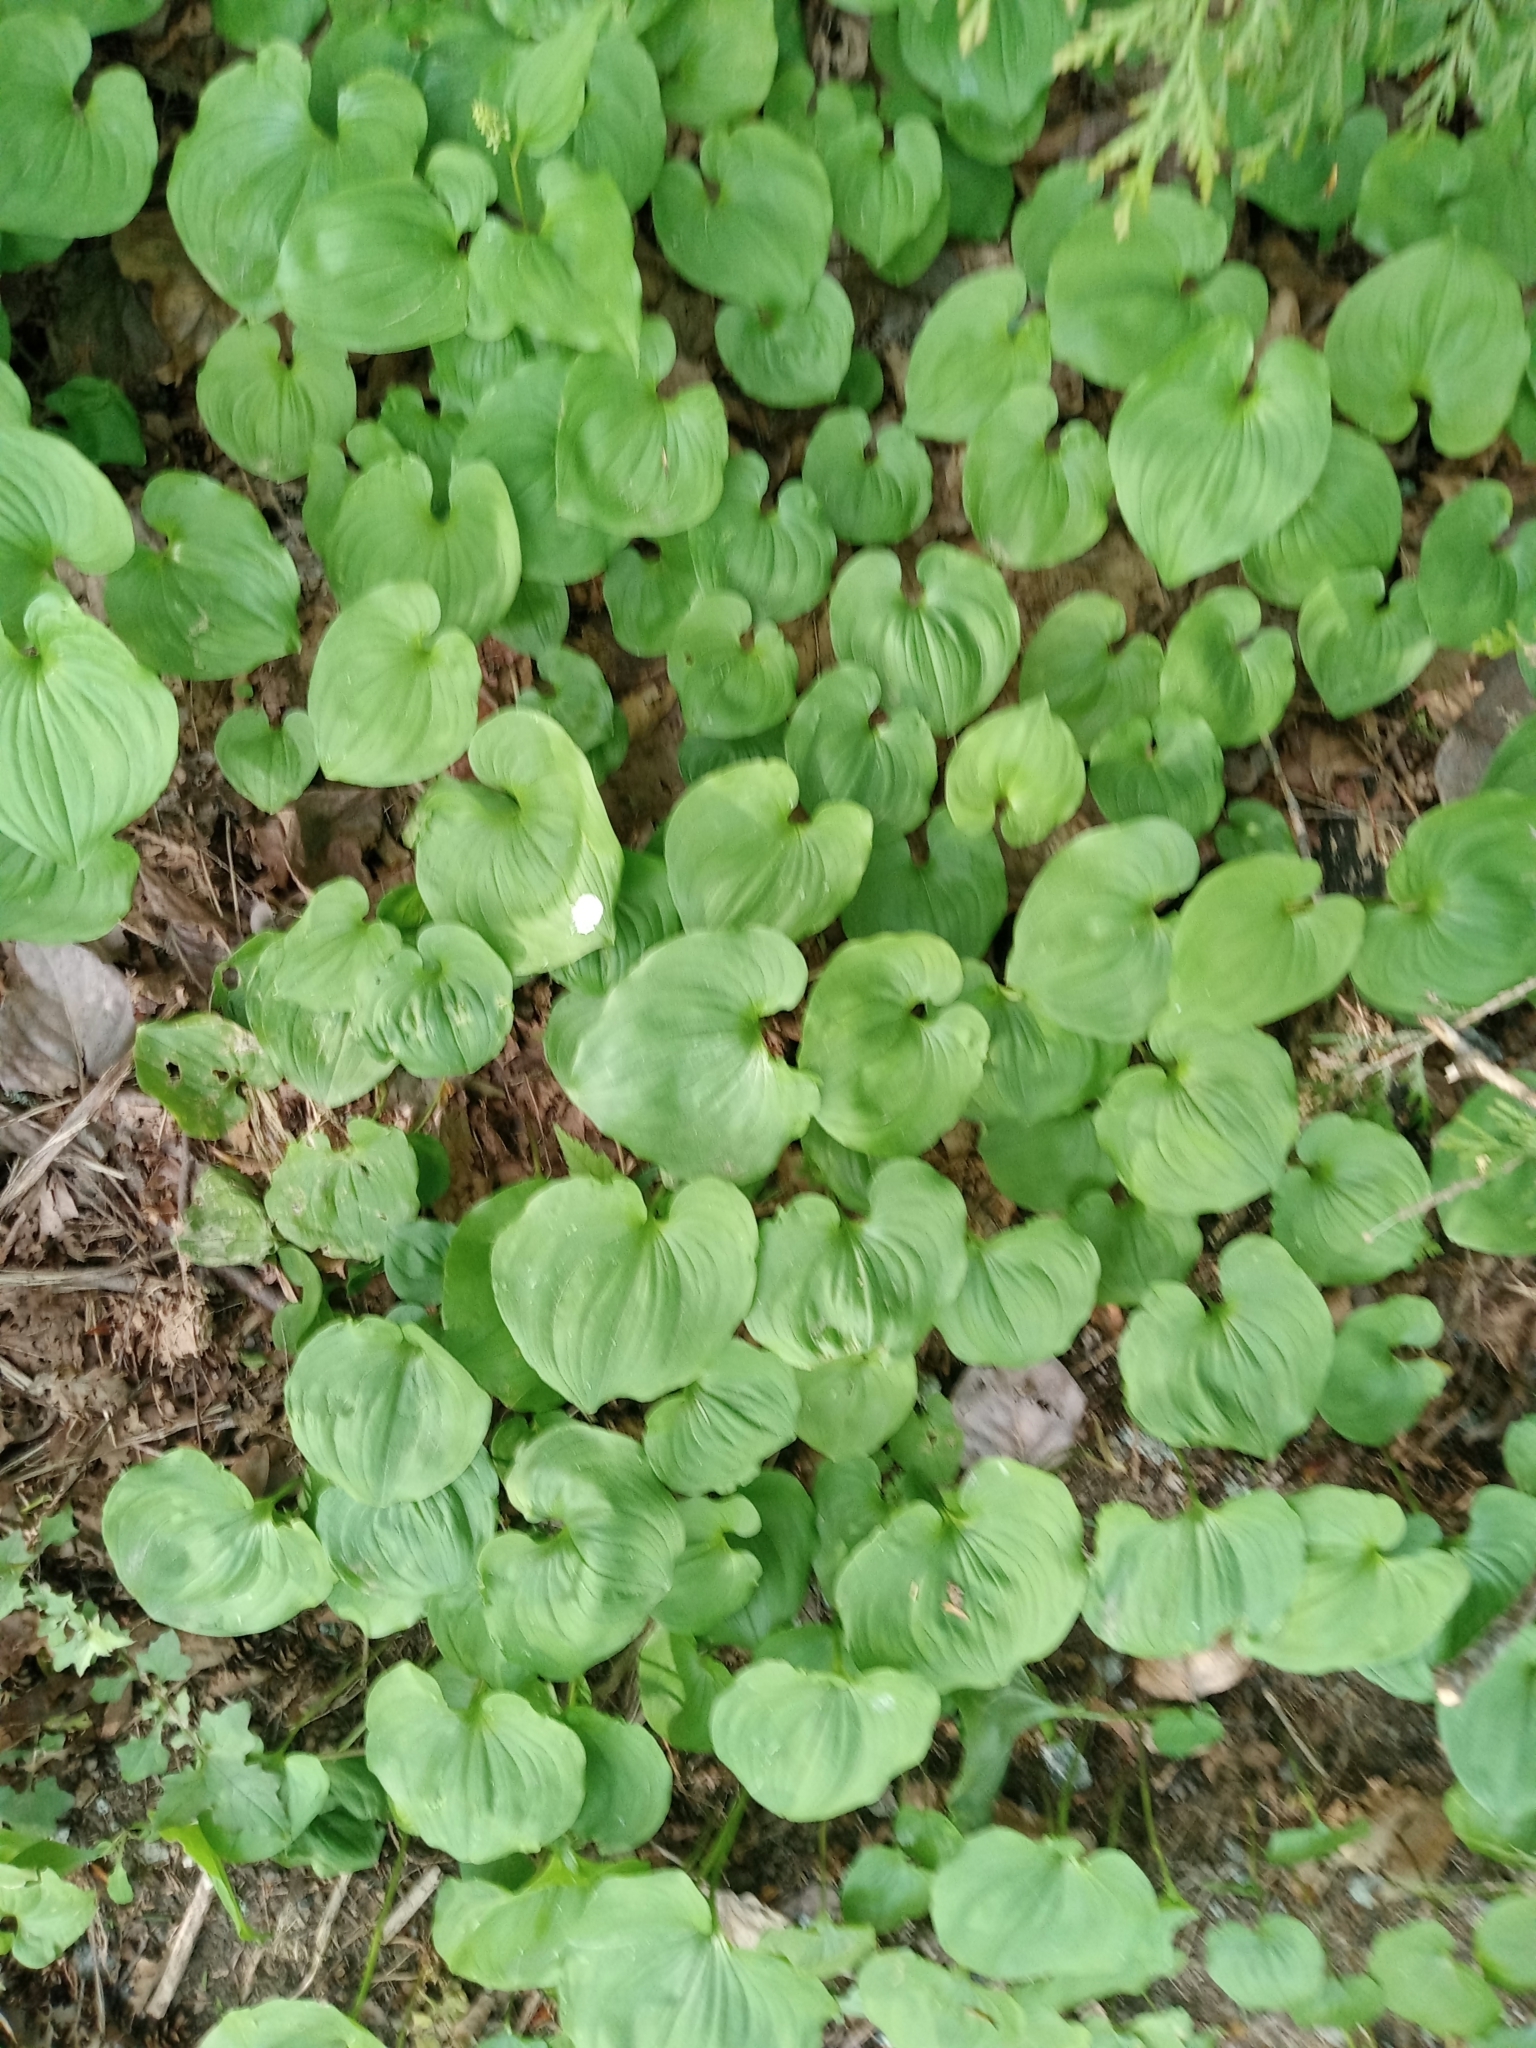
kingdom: Plantae
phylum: Tracheophyta
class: Liliopsida
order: Asparagales
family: Asparagaceae
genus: Maianthemum
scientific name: Maianthemum dilatatum
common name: False lily-of-the-valley
